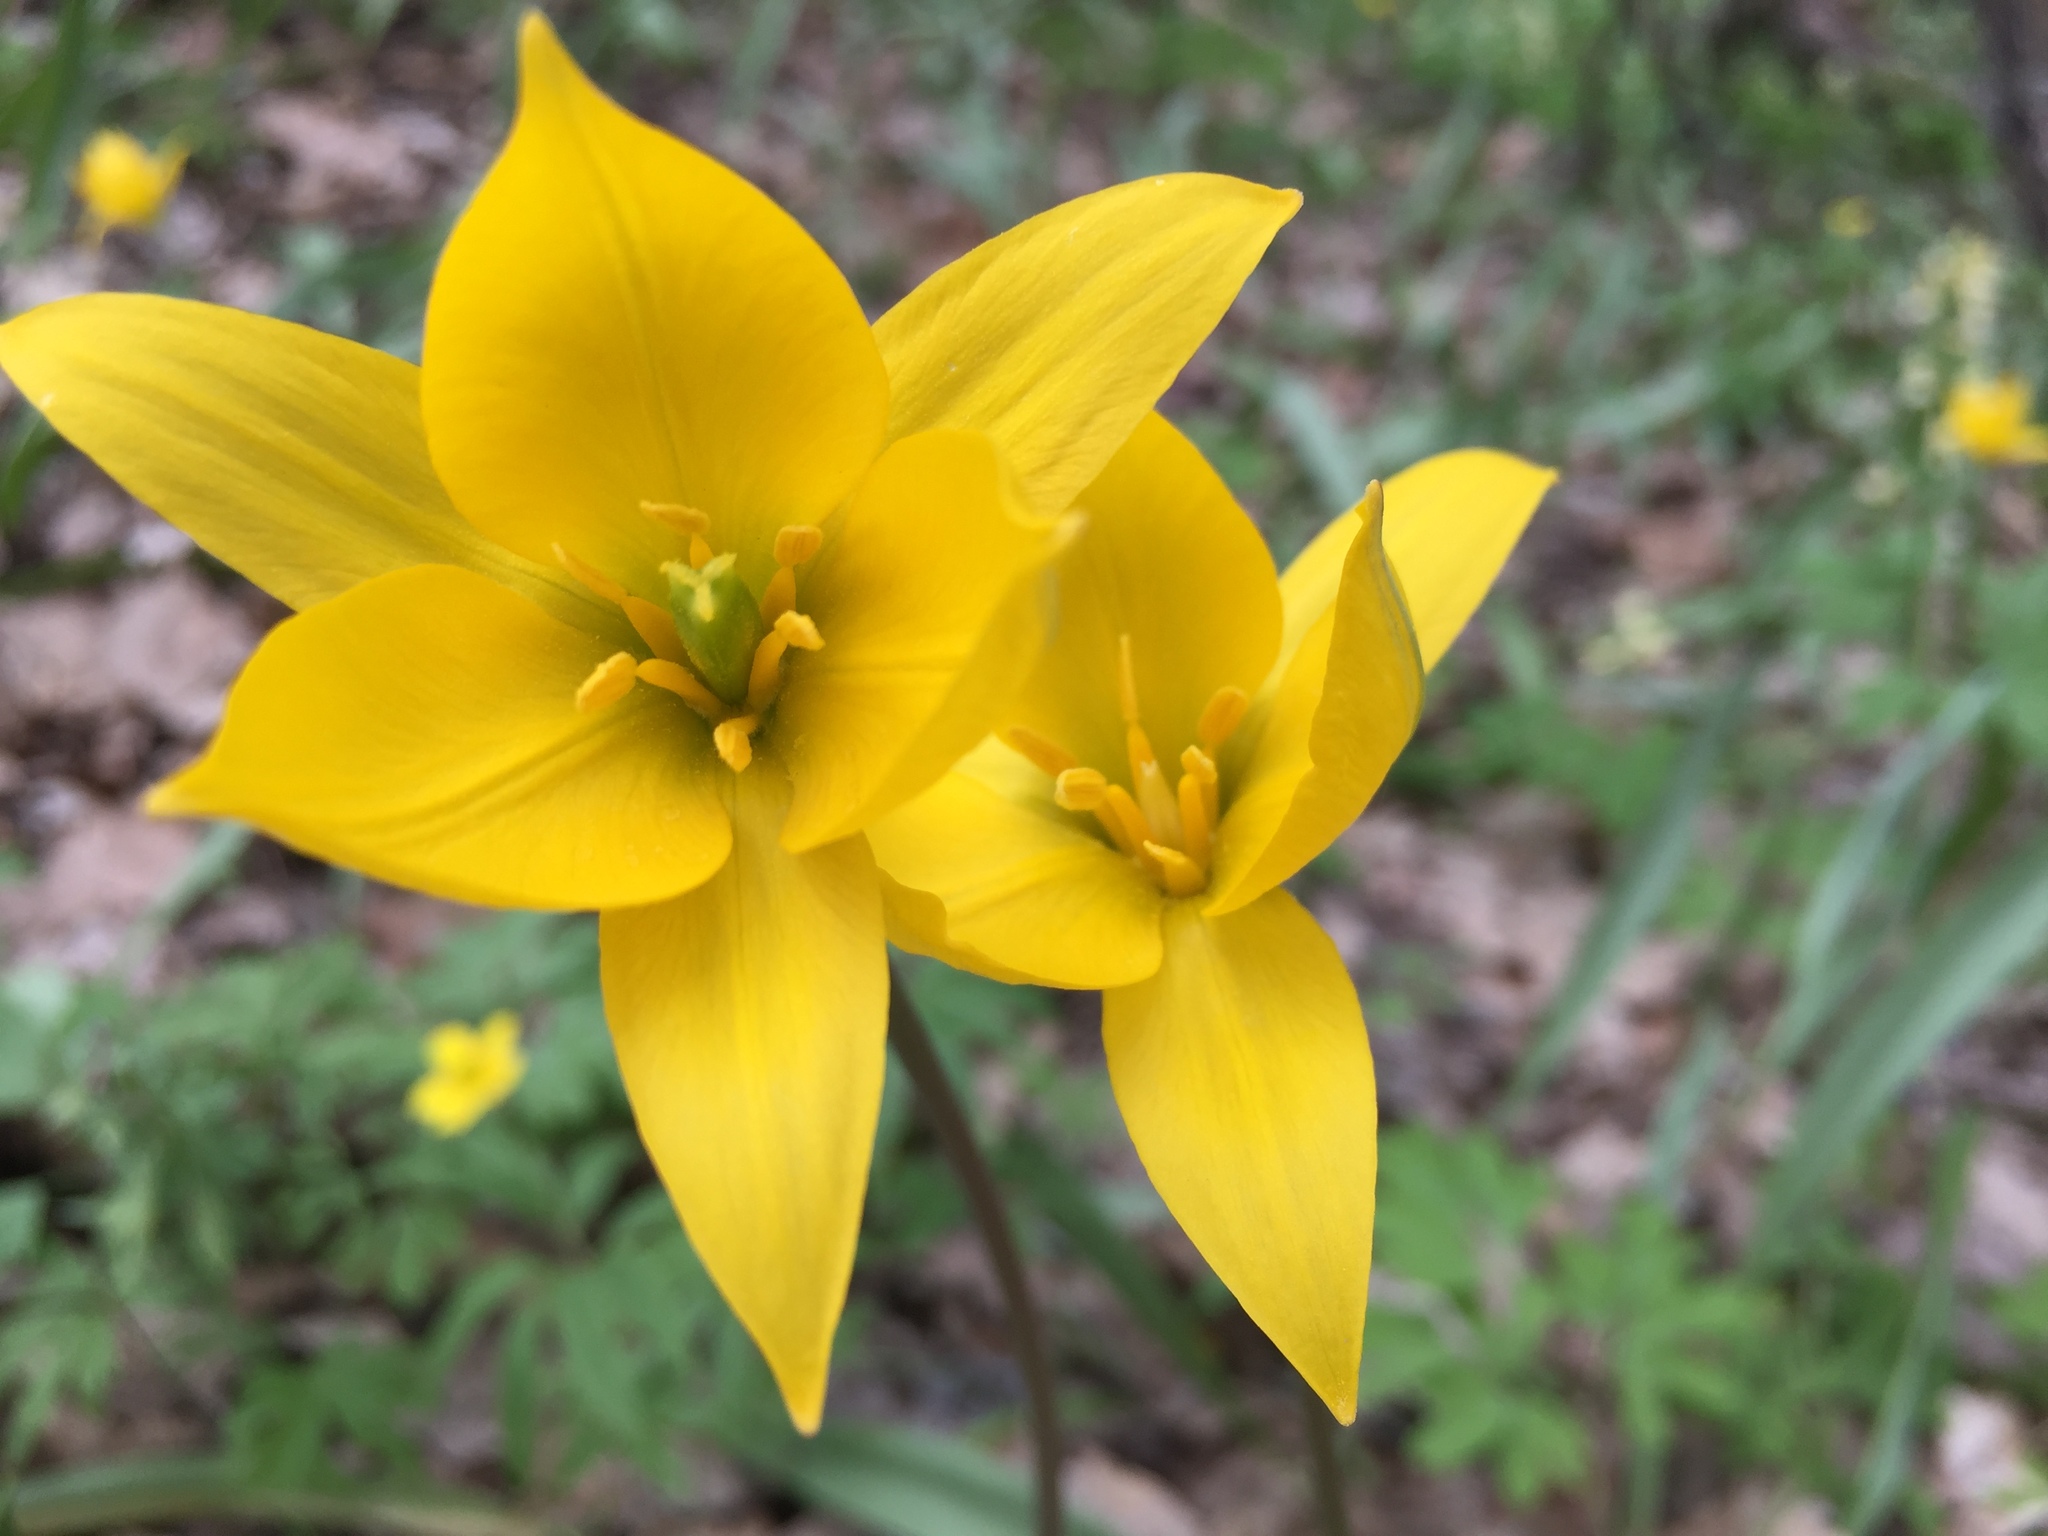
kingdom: Plantae
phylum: Tracheophyta
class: Liliopsida
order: Liliales
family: Liliaceae
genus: Tulipa
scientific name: Tulipa sylvestris
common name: Wild tulip
